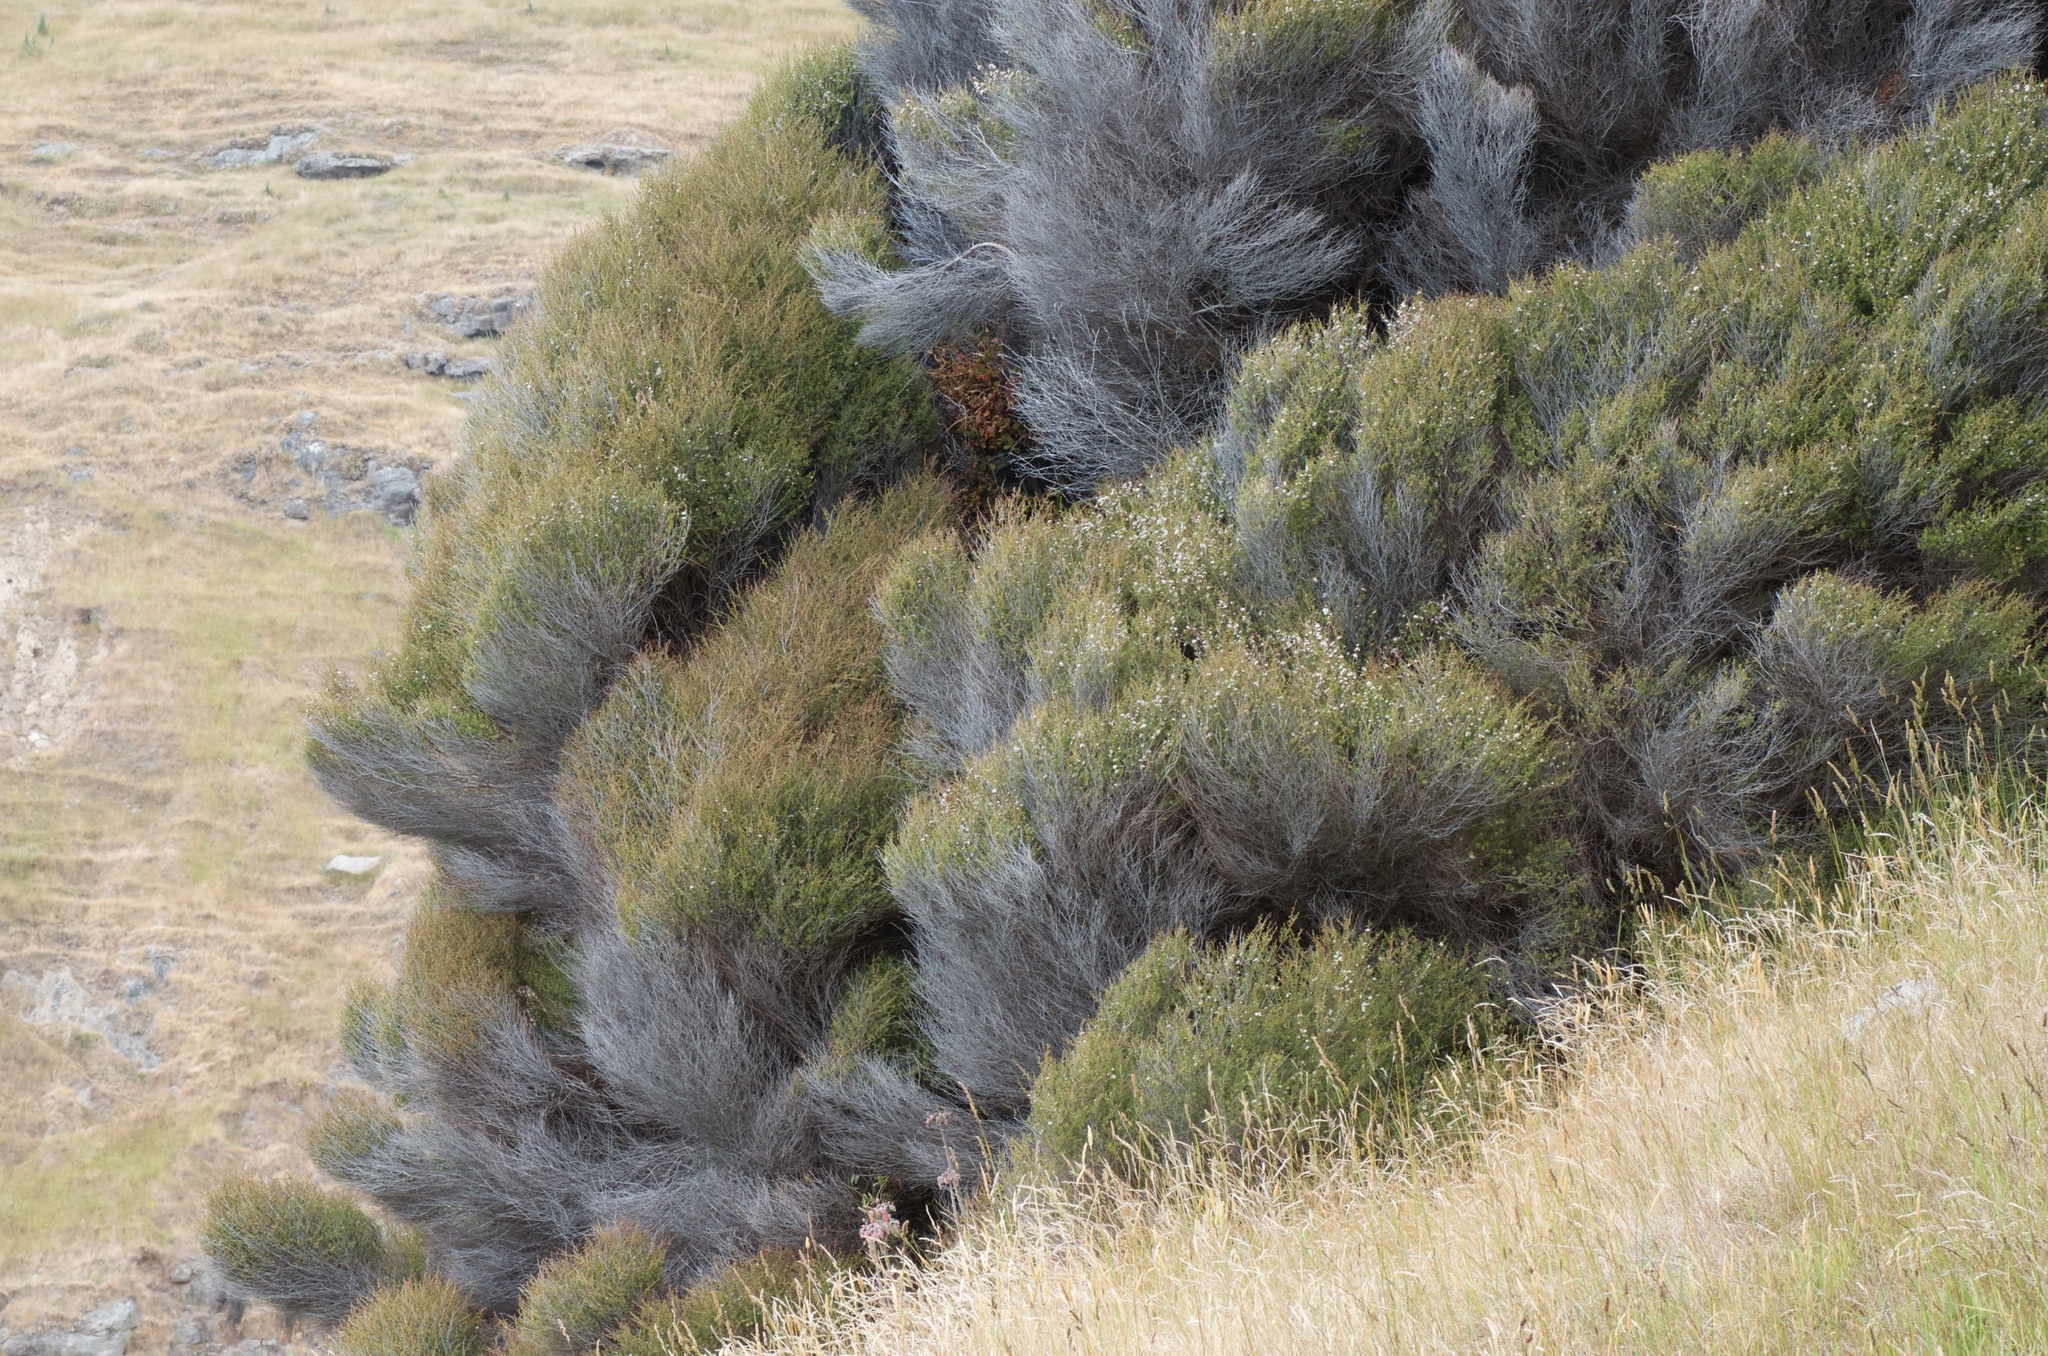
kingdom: Plantae
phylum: Tracheophyta
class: Magnoliopsida
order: Myrtales
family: Myrtaceae
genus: Kunzea
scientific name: Kunzea robusta
